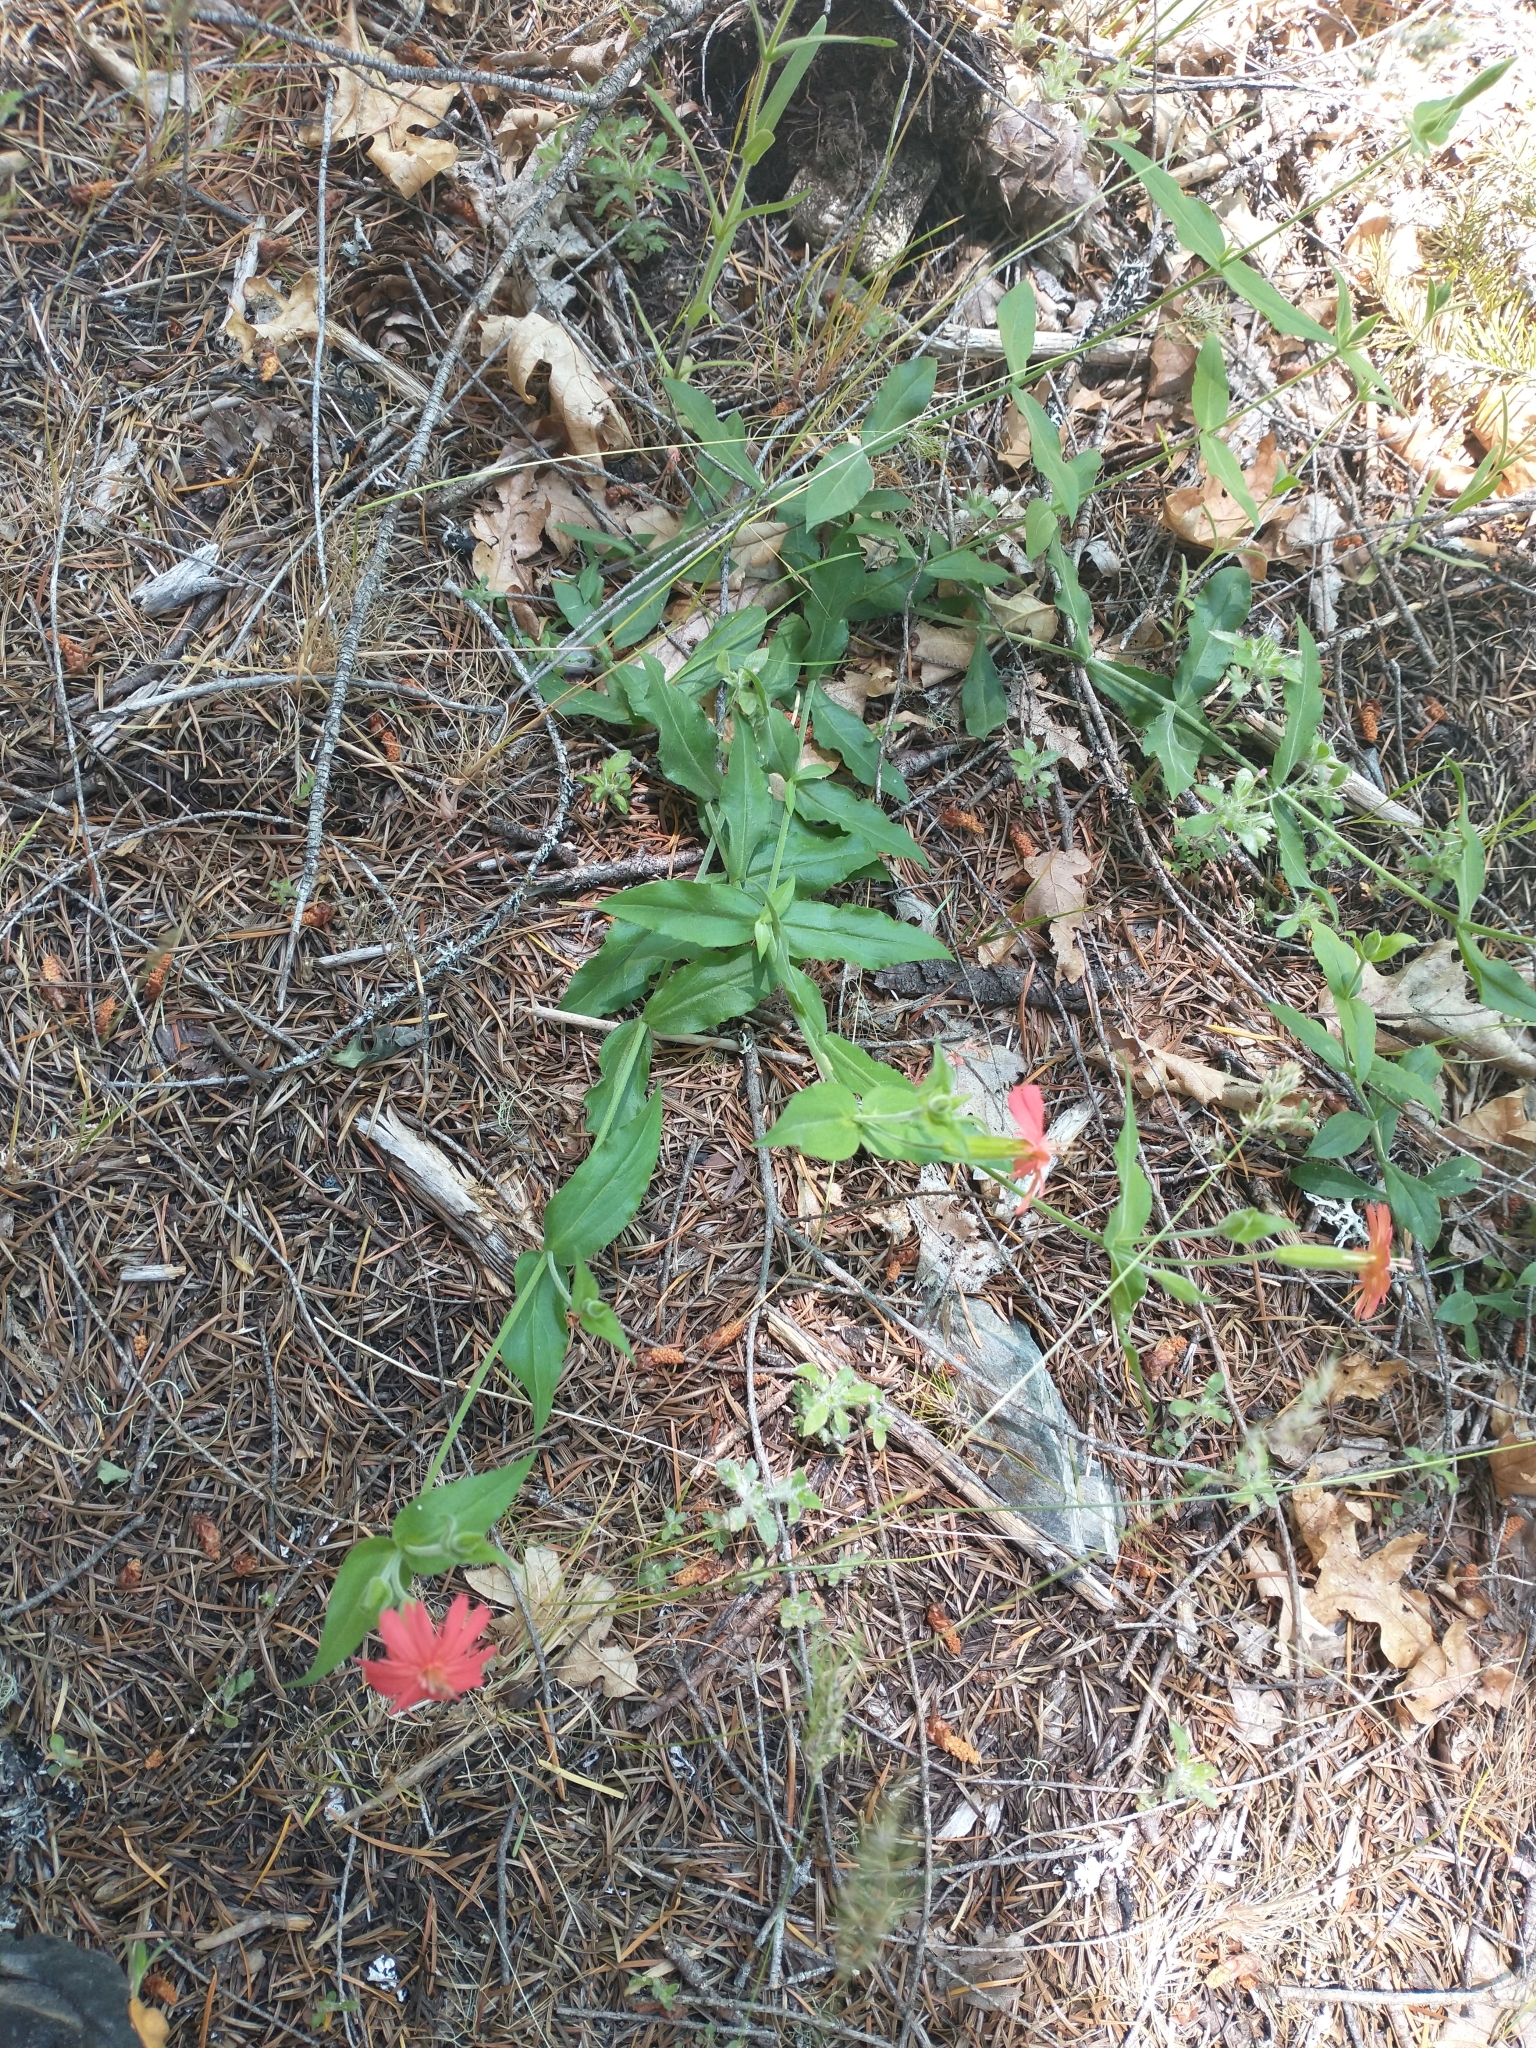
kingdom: Plantae
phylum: Tracheophyta
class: Magnoliopsida
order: Caryophyllales
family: Caryophyllaceae
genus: Silene
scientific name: Silene laciniata
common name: Indian-pink
